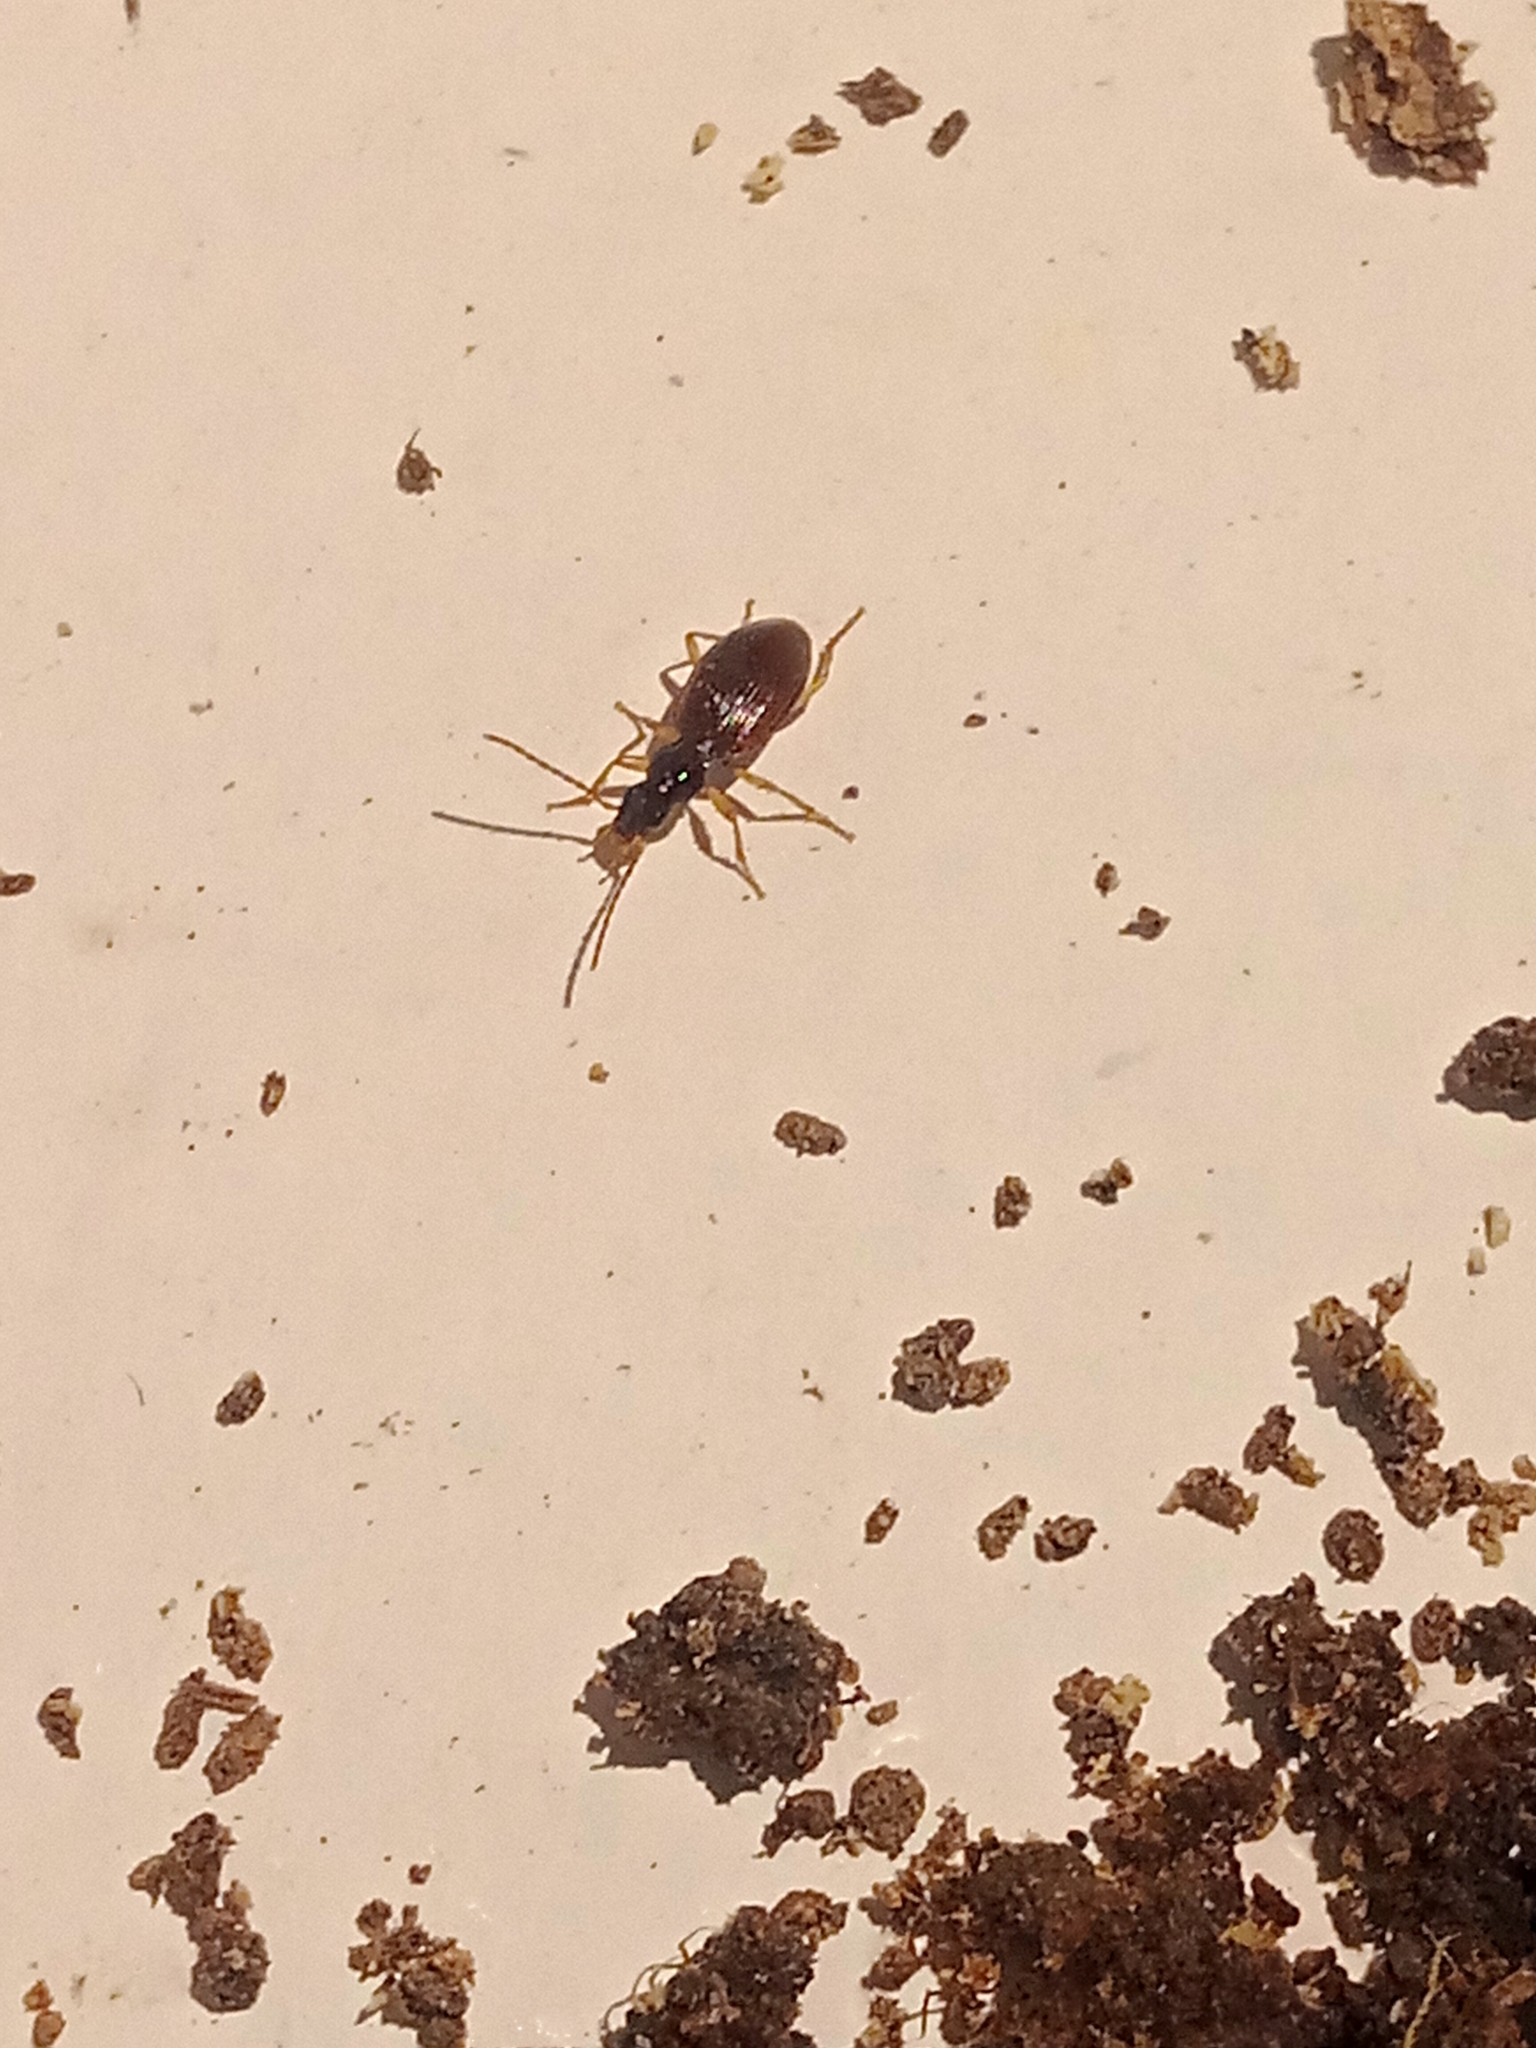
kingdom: Animalia
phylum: Arthropoda
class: Insecta
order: Coleoptera
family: Carabidae
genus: Oxypselaphus
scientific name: Oxypselaphus obscurus
